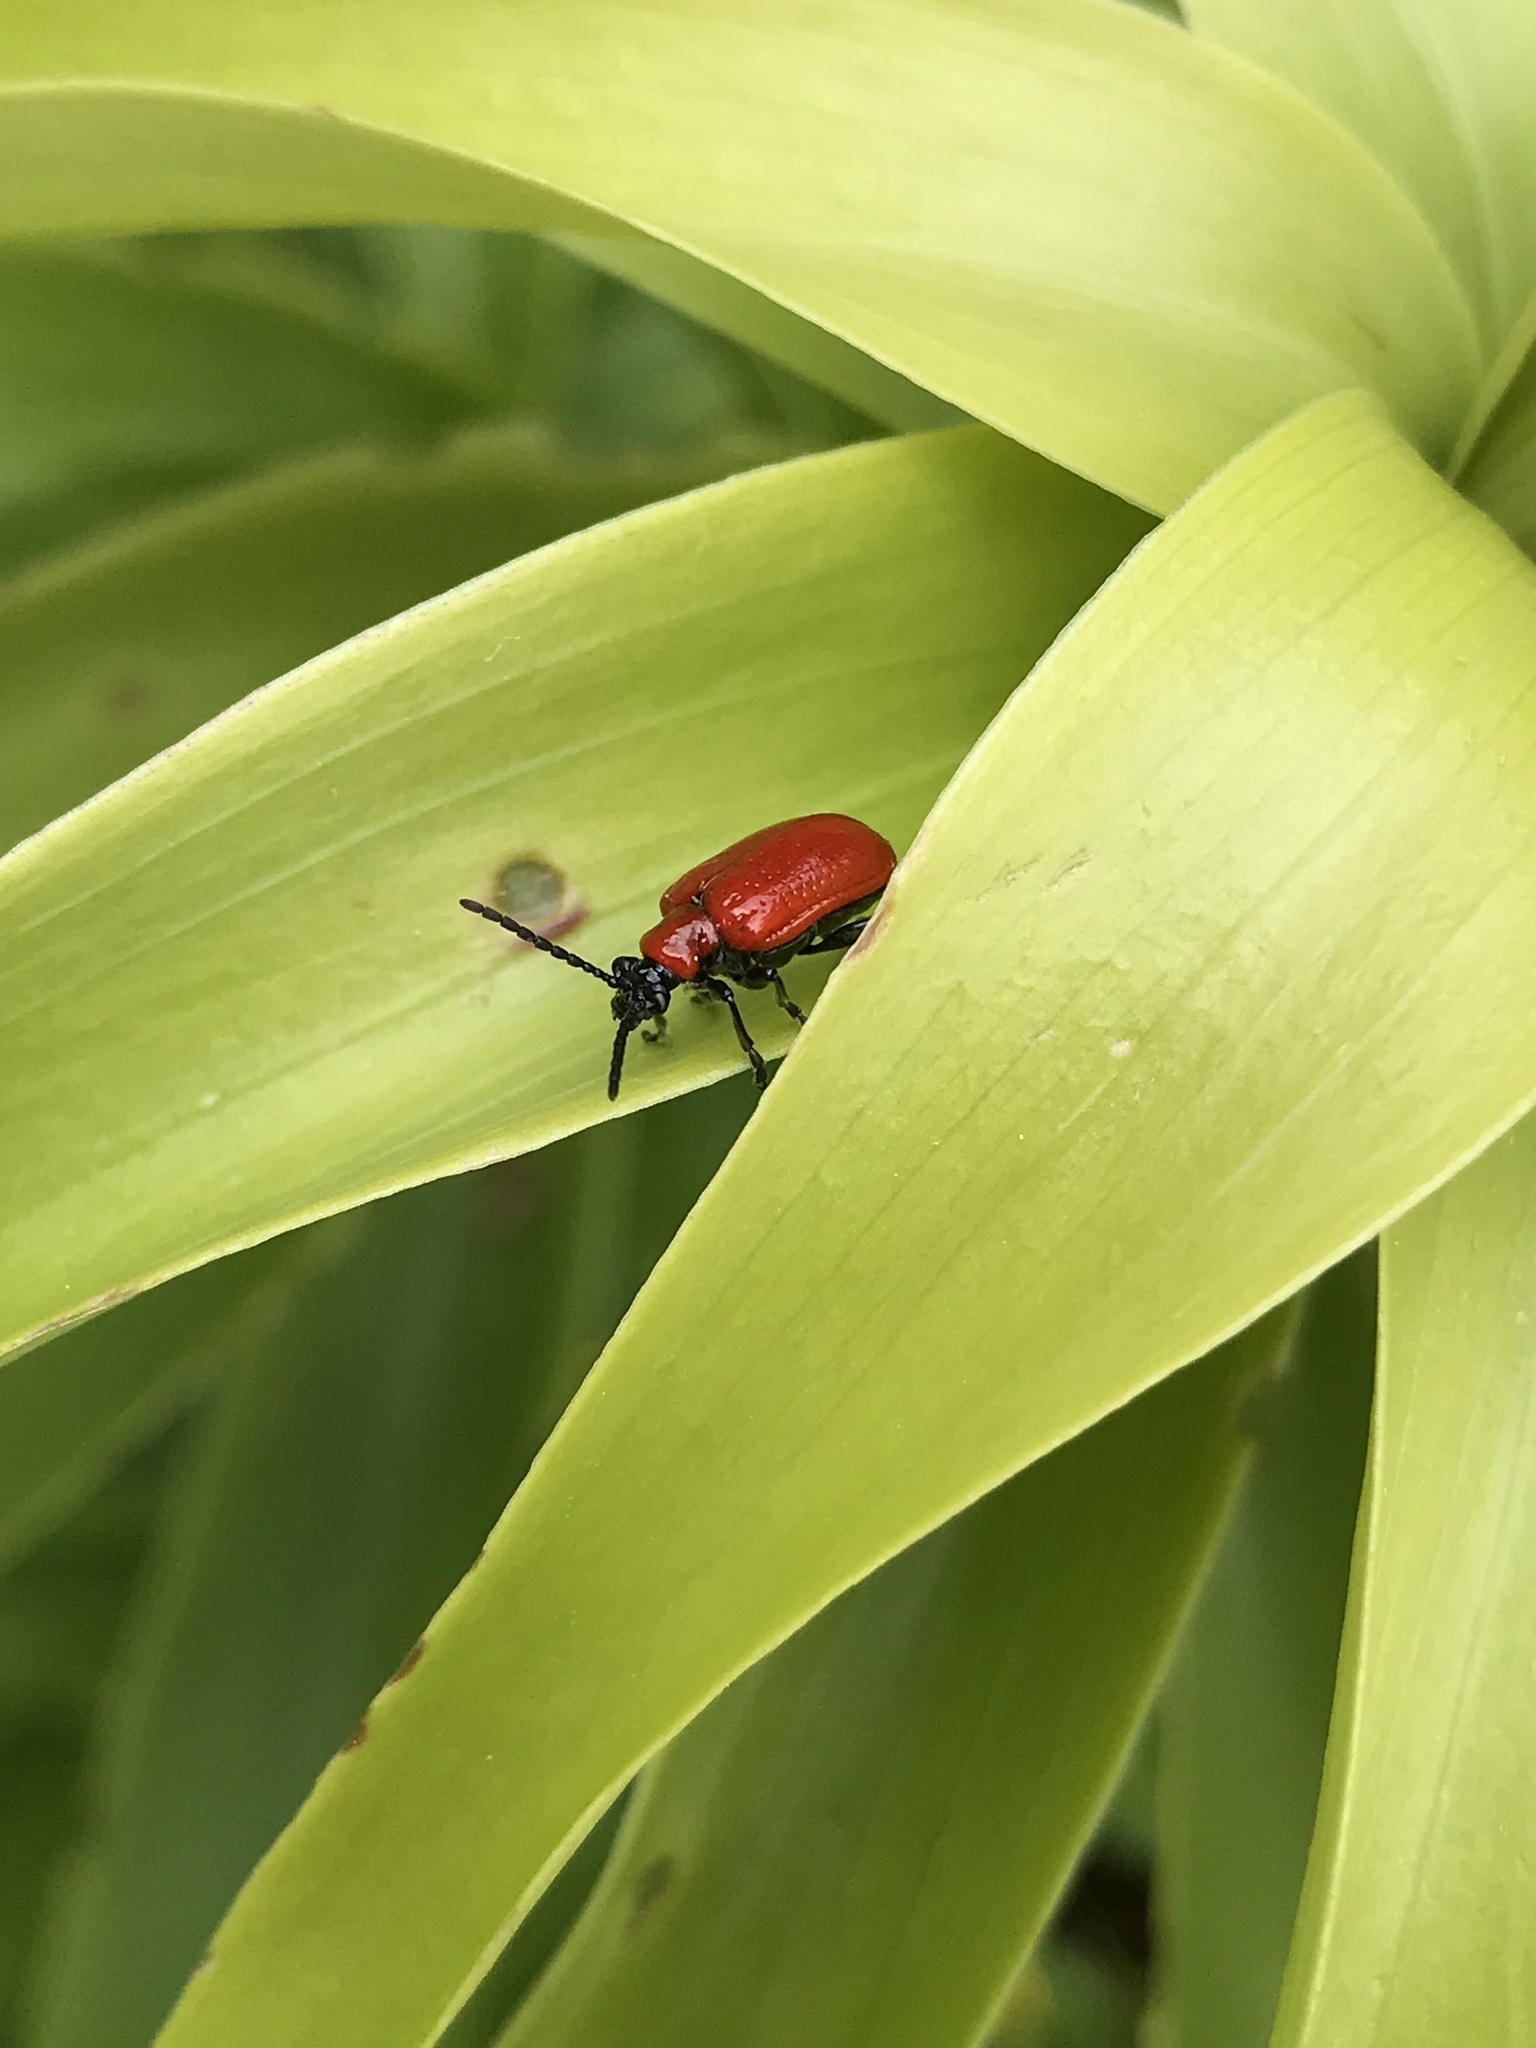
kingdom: Animalia
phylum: Arthropoda
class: Insecta
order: Coleoptera
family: Chrysomelidae
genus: Lilioceris
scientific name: Lilioceris lilii
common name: Lily beetle
